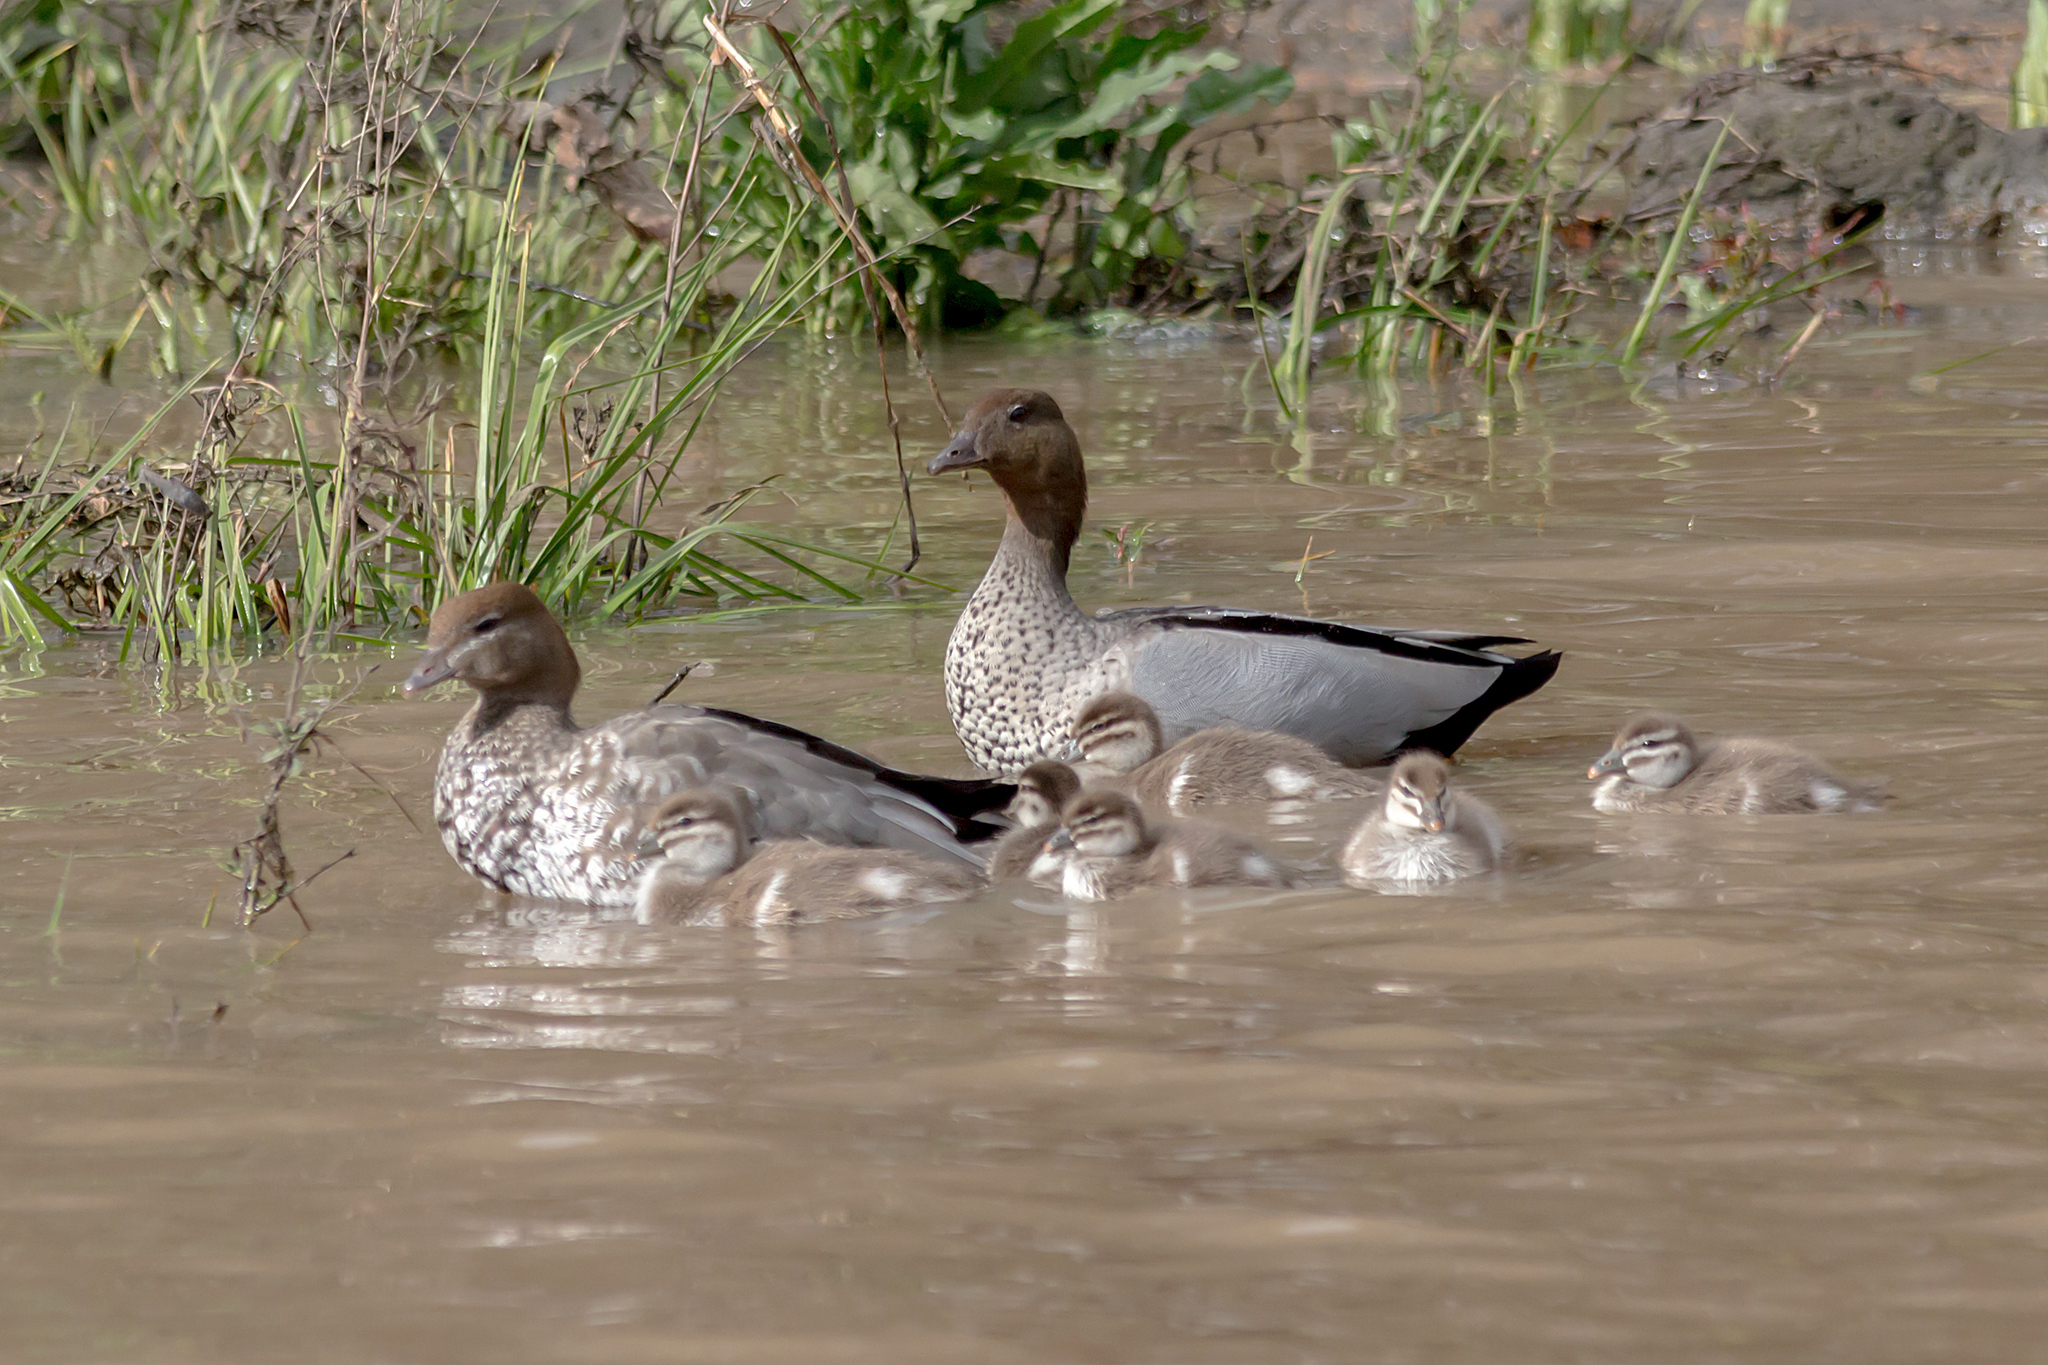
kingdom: Animalia
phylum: Chordata
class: Aves
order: Anseriformes
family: Anatidae
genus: Chenonetta
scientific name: Chenonetta jubata
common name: Maned duck
